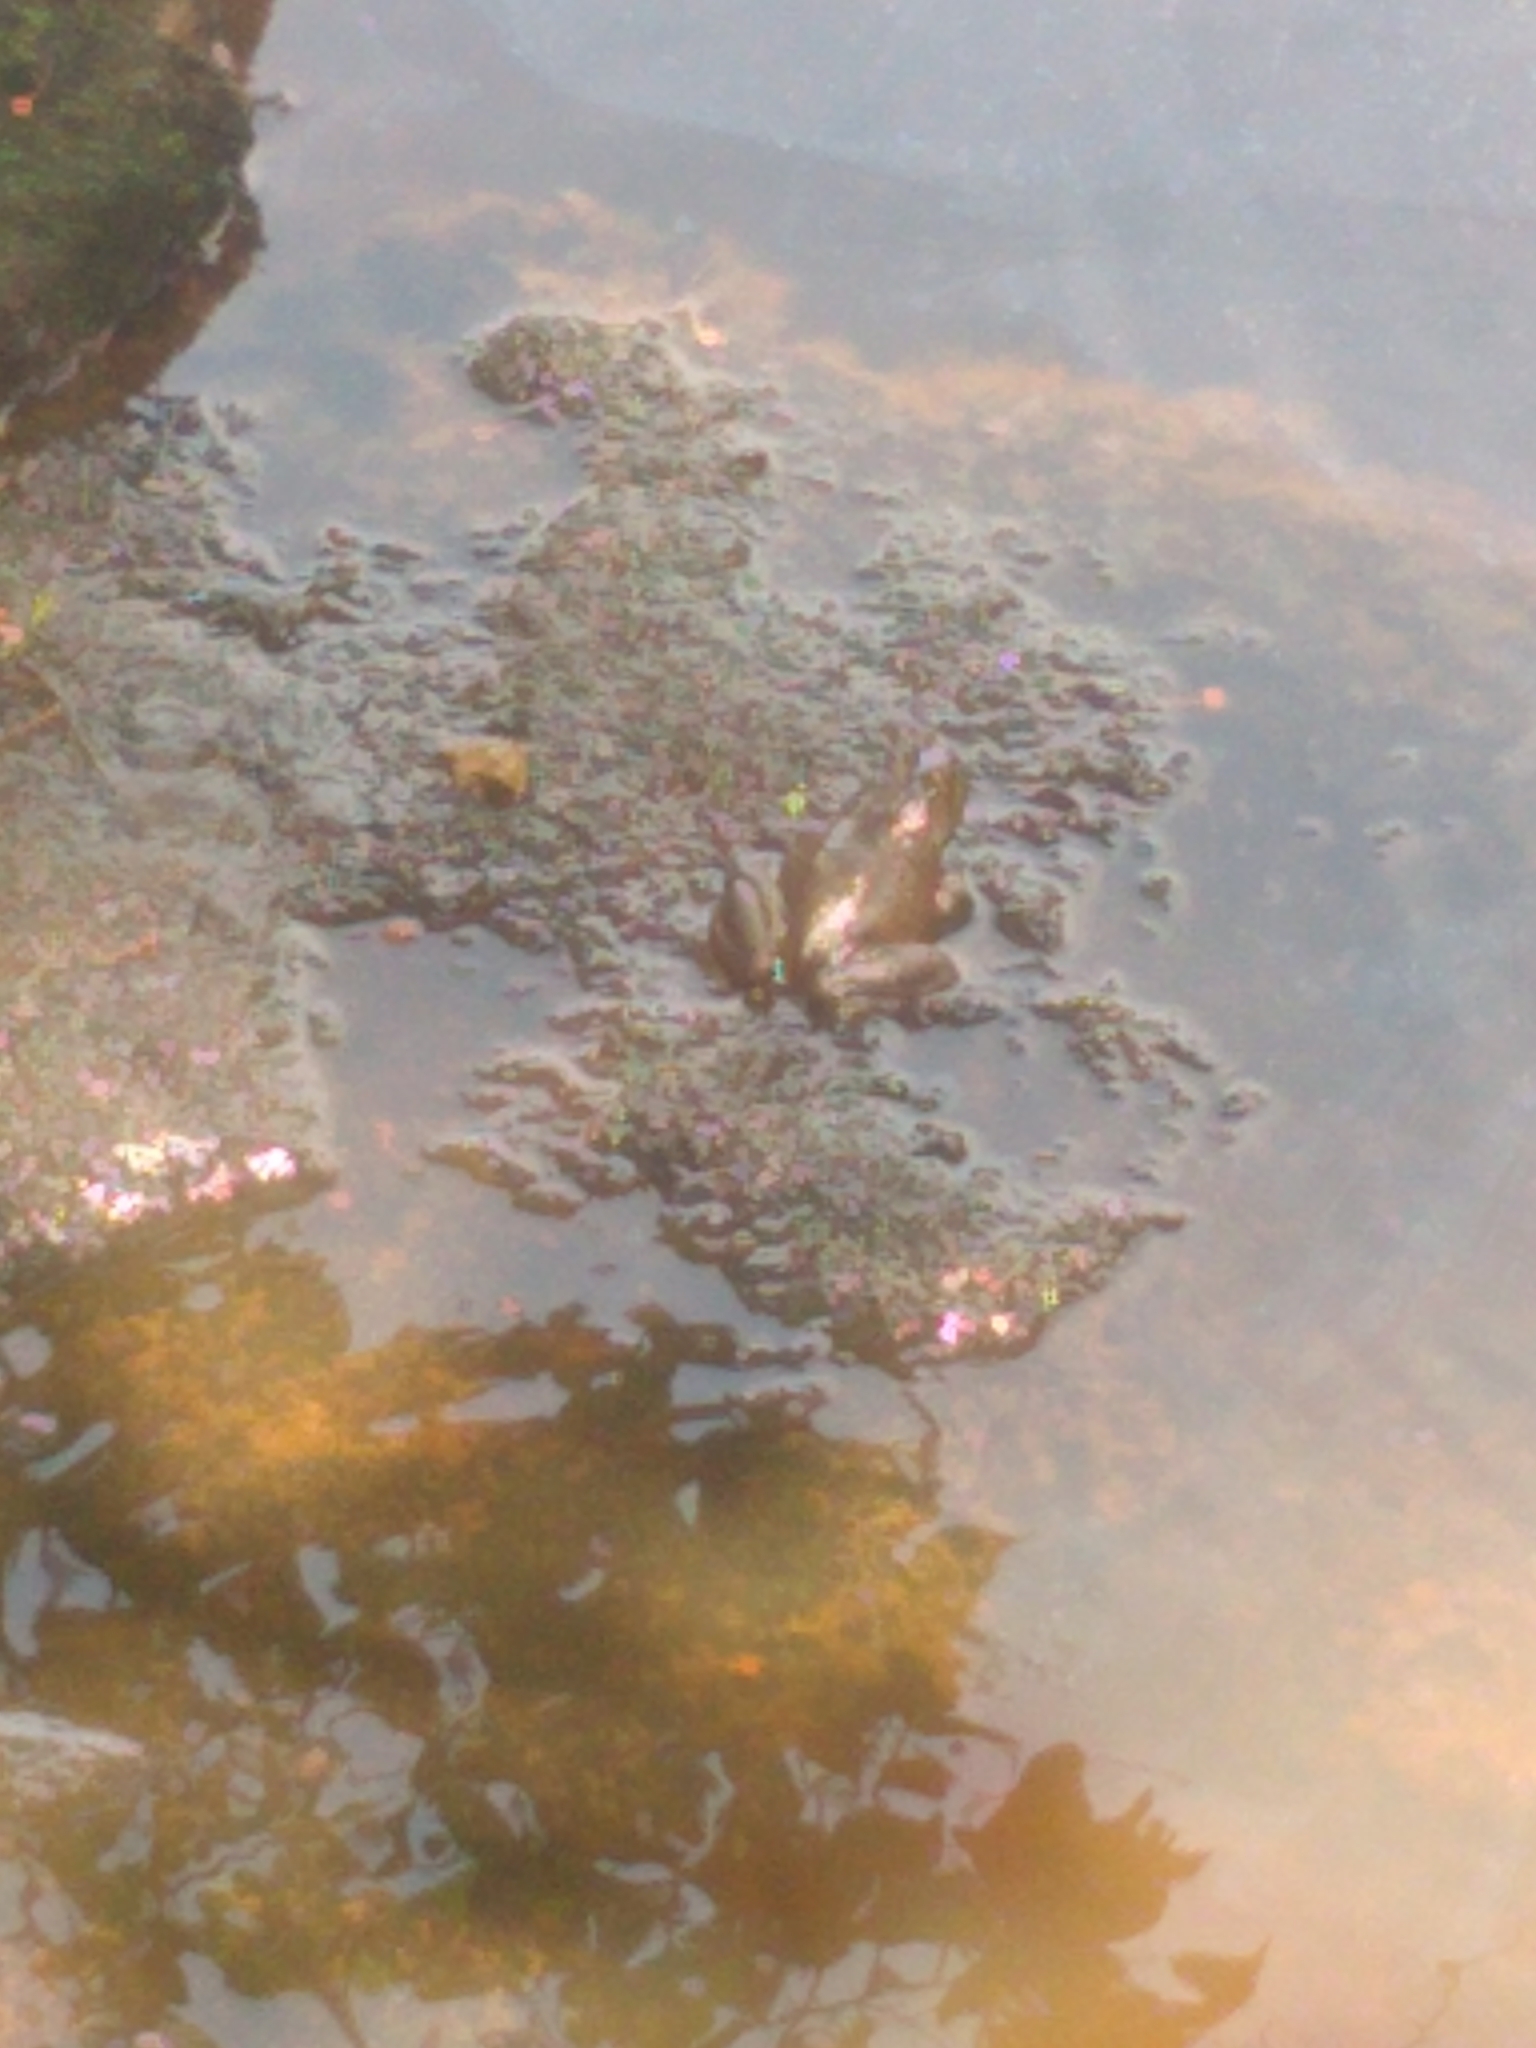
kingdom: Animalia
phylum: Chordata
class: Amphibia
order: Anura
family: Ranidae
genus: Lithobates
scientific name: Lithobates catesbeianus
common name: American bullfrog
